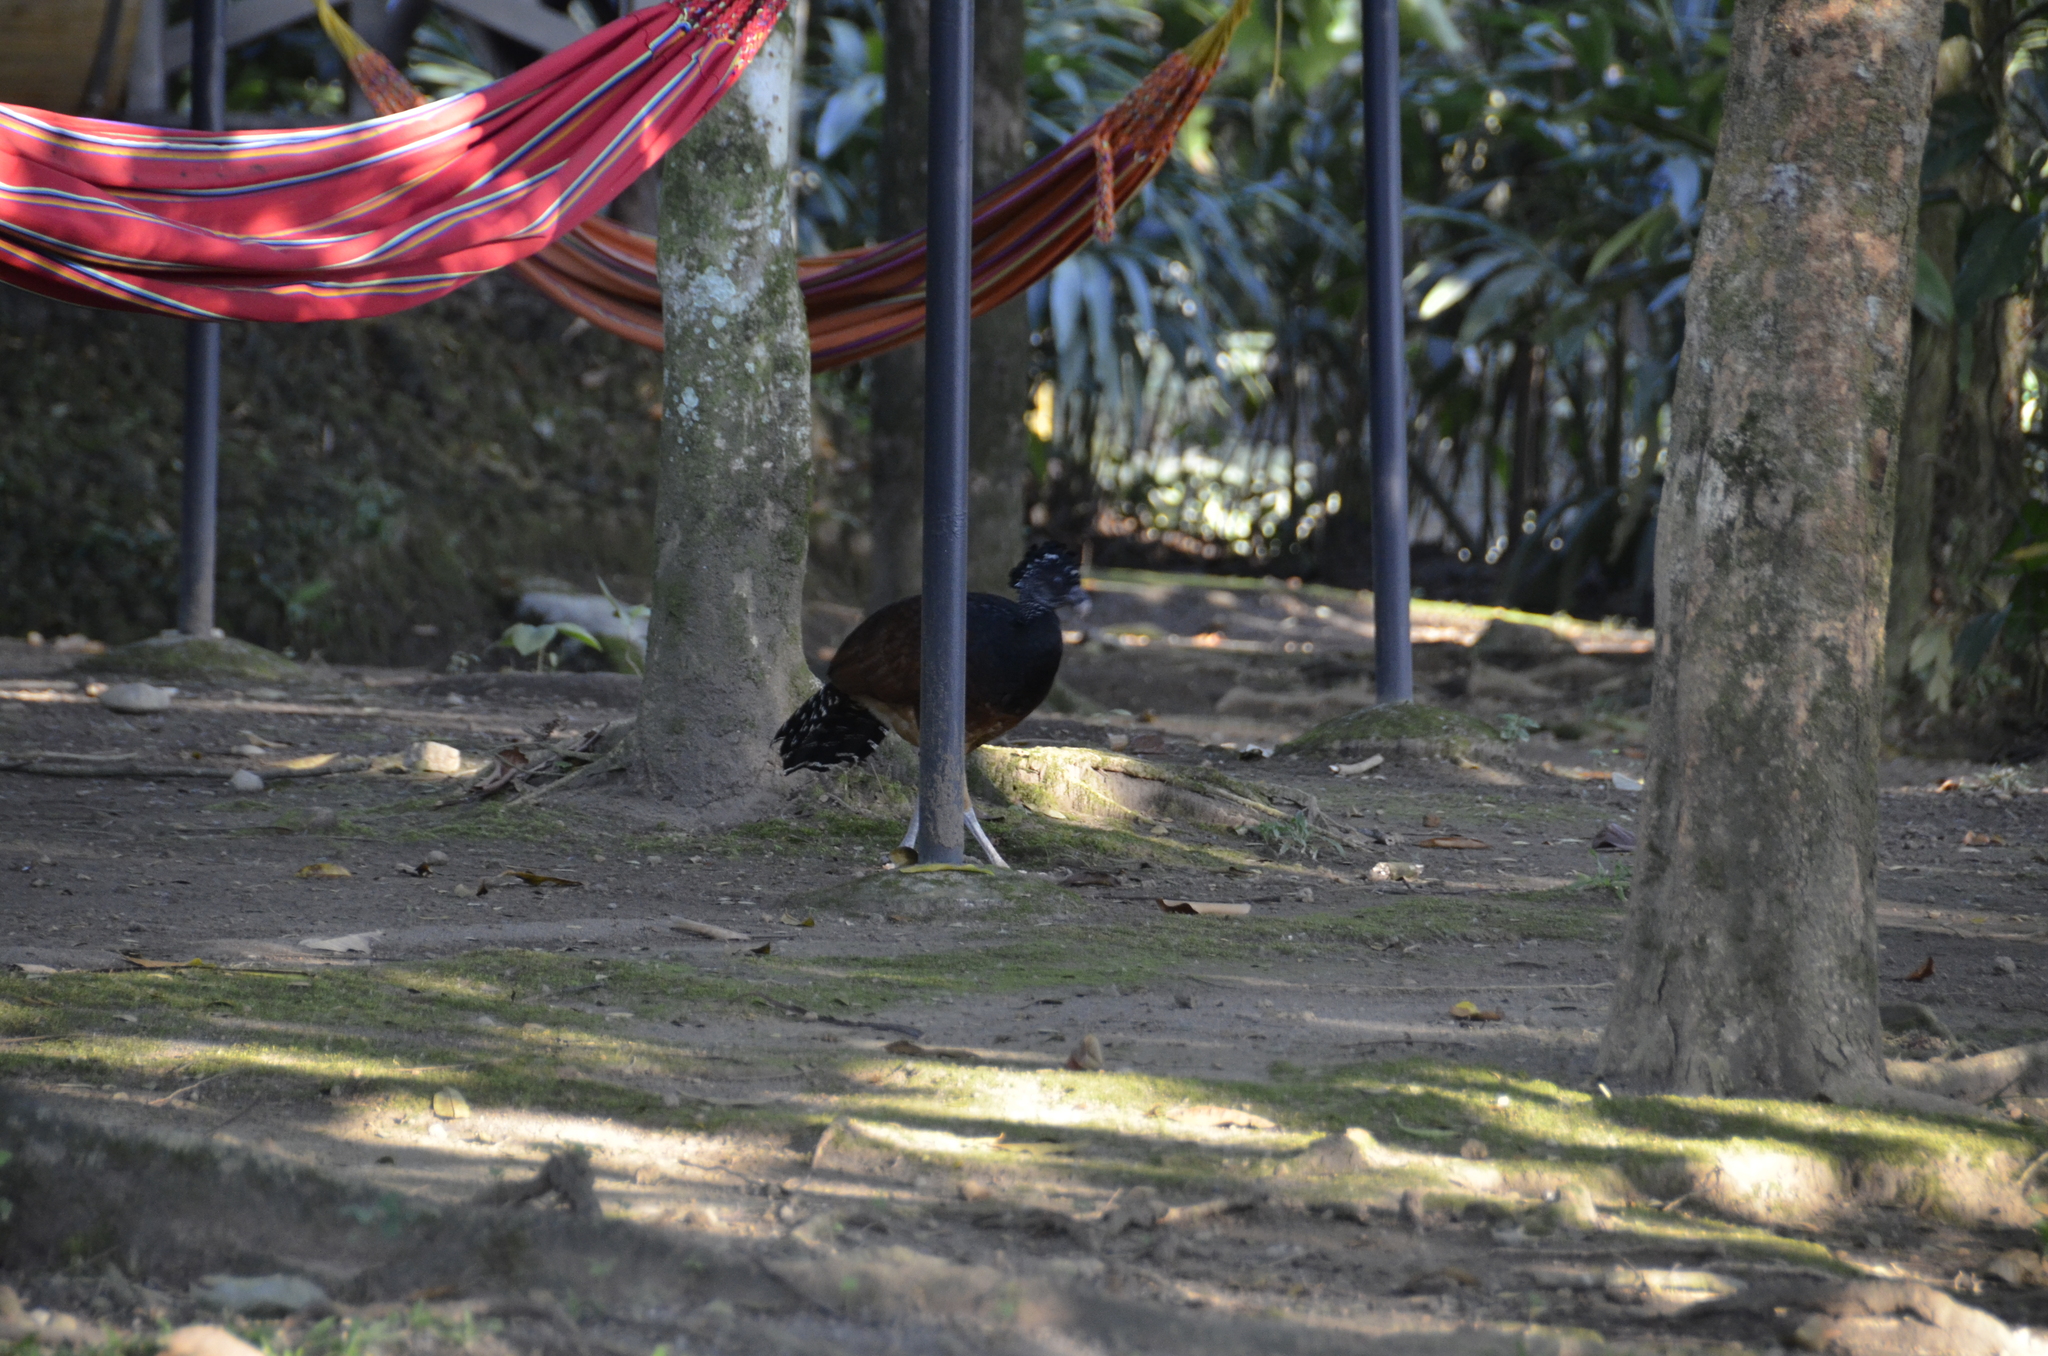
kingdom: Animalia
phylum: Chordata
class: Aves
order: Galliformes
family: Cracidae
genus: Crax
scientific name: Crax rubra
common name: Great curassow
